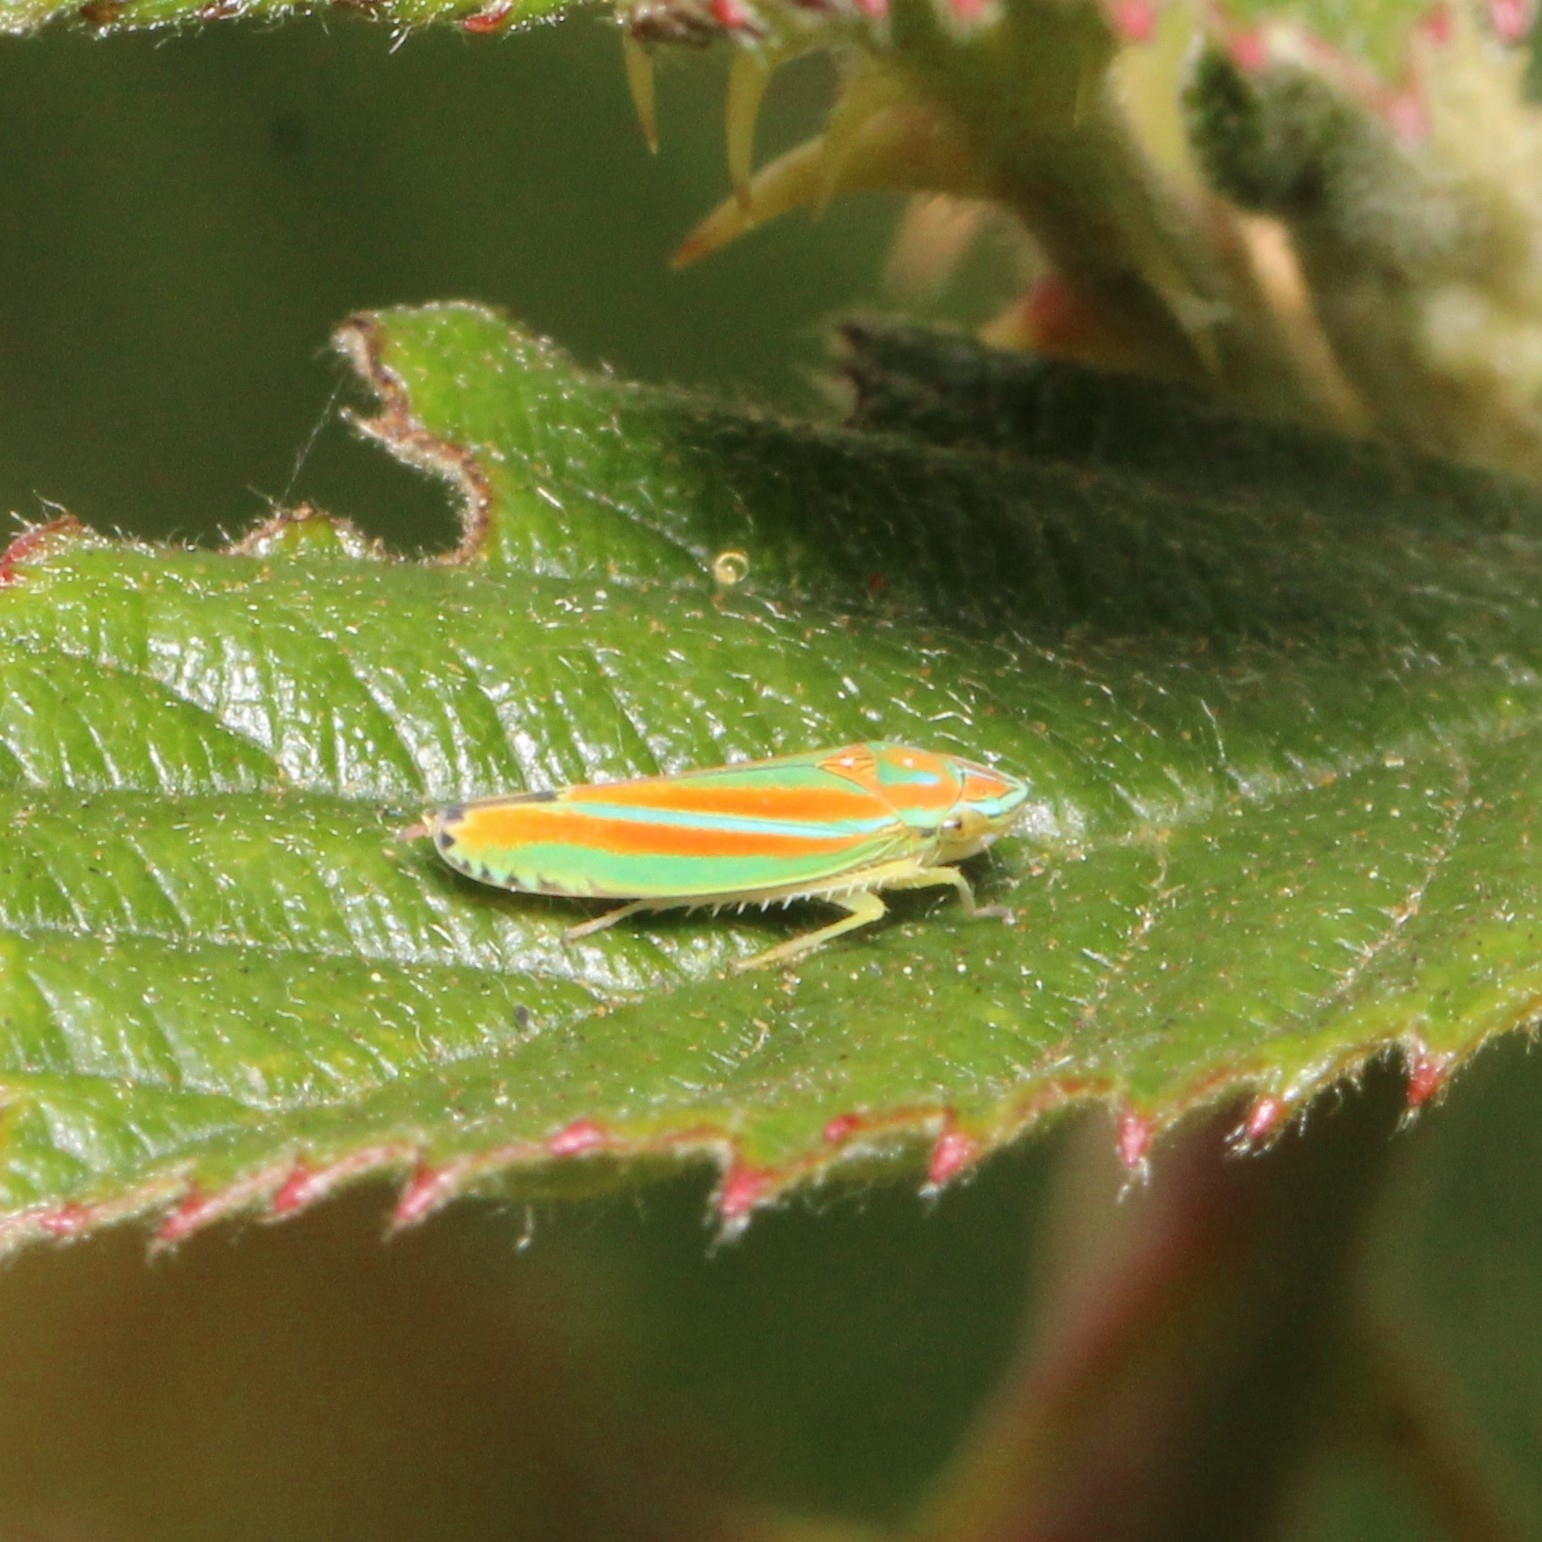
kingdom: Animalia
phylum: Arthropoda
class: Insecta
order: Hemiptera
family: Cicadellidae
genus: Graphocephala
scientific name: Graphocephala versuta
